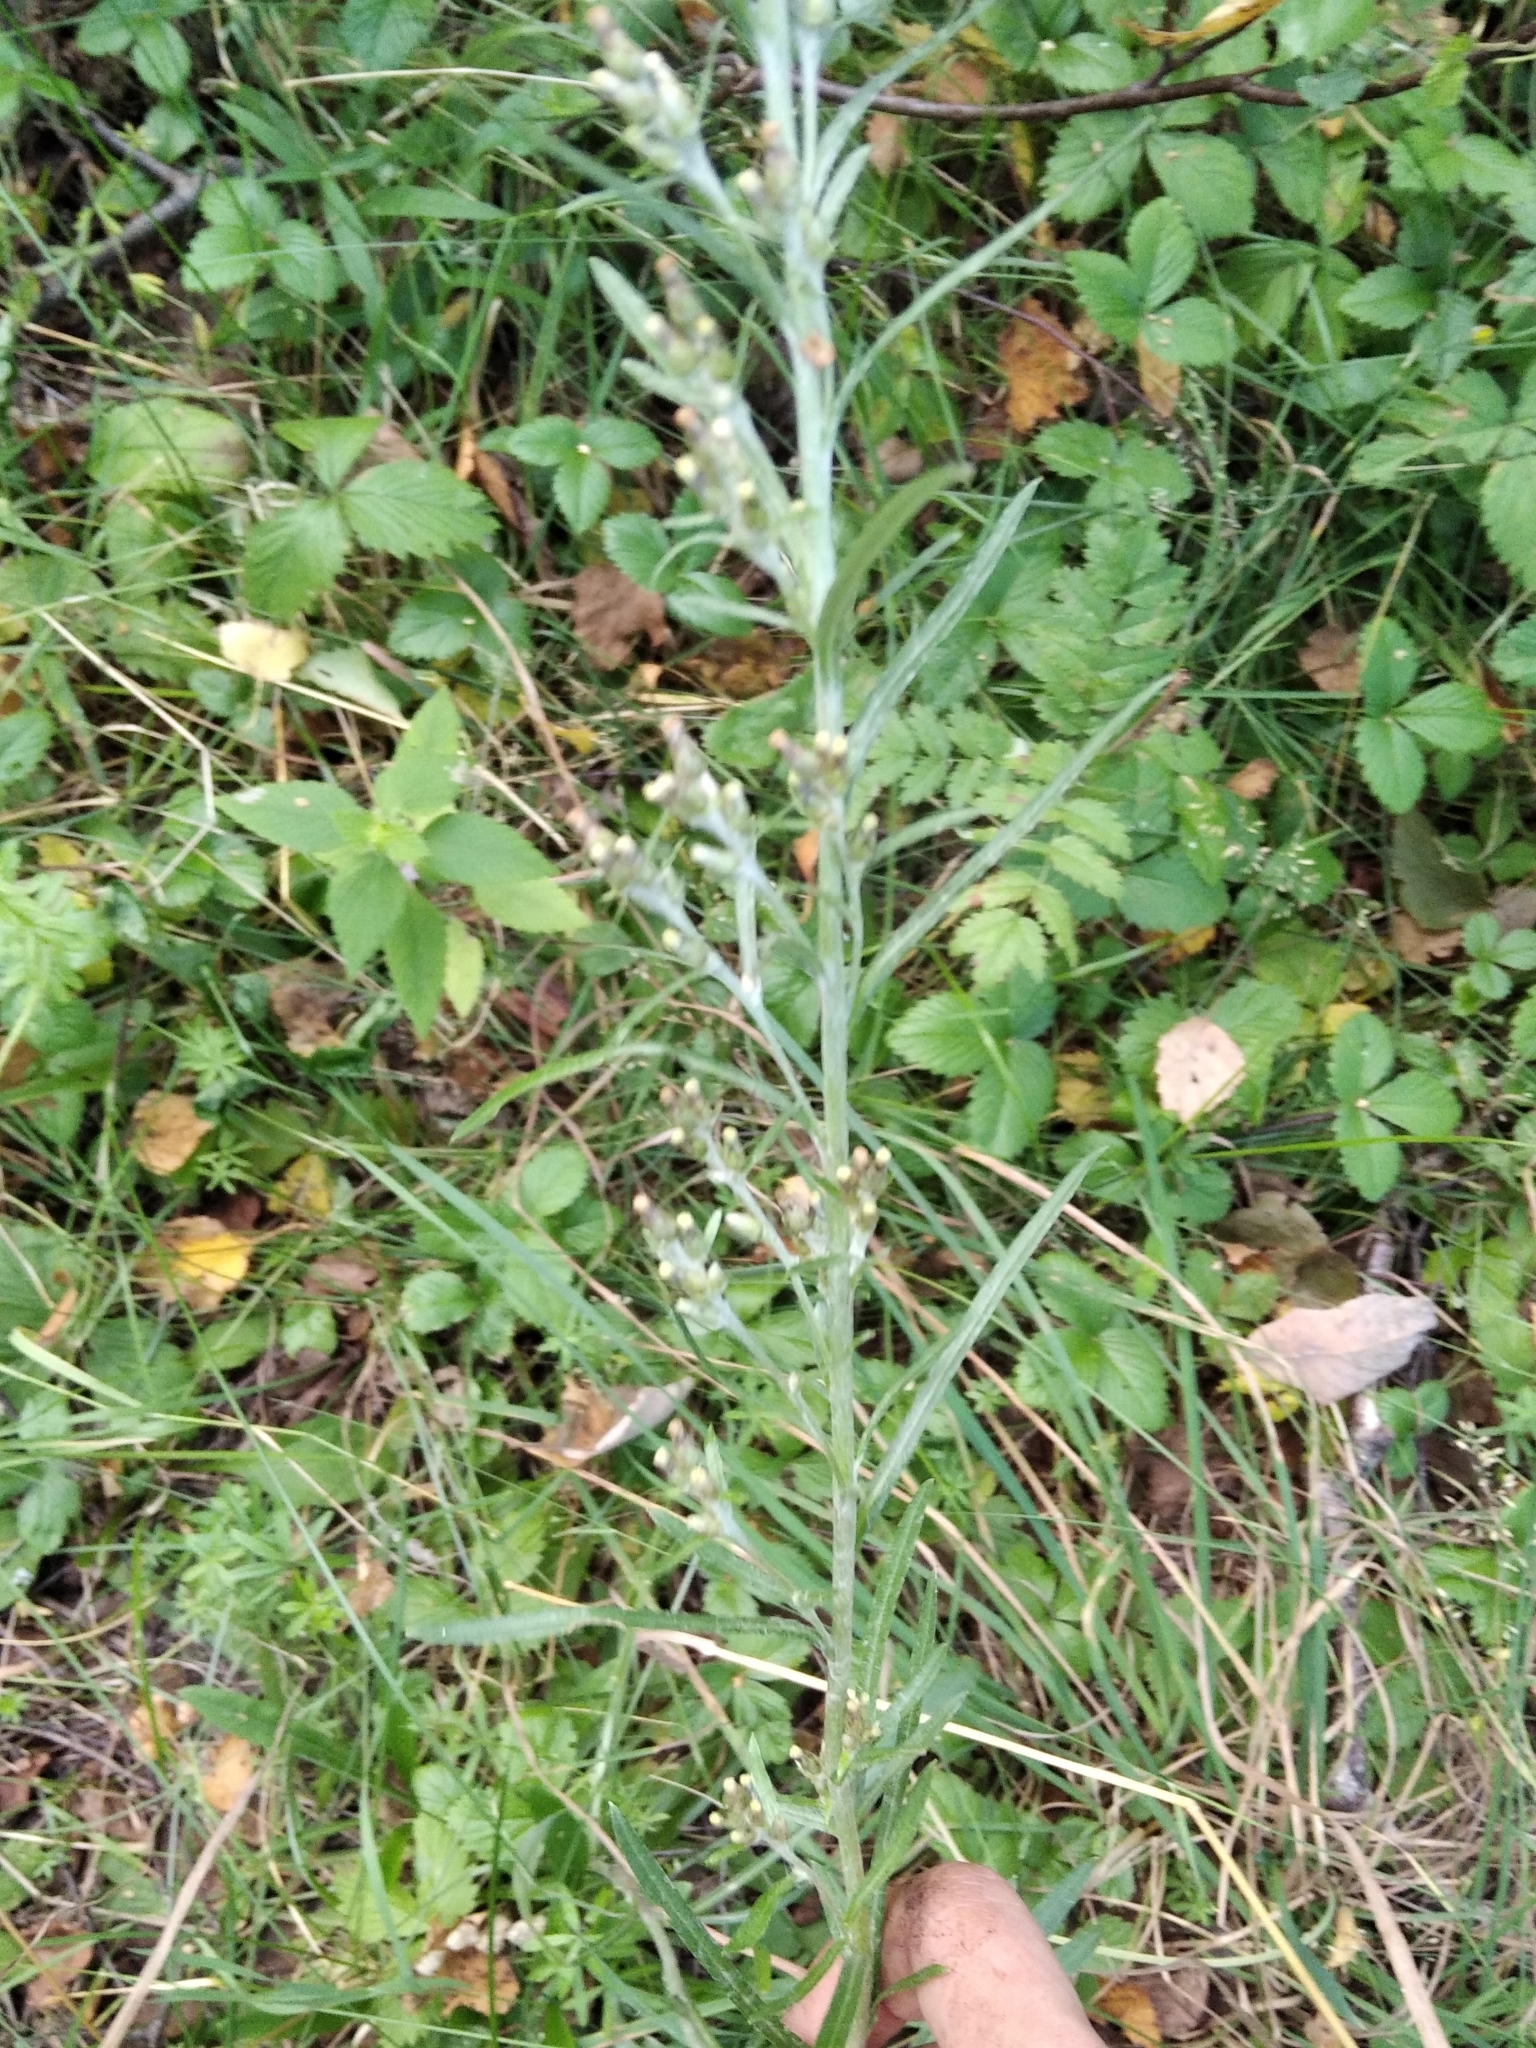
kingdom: Plantae
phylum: Tracheophyta
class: Magnoliopsida
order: Asterales
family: Asteraceae
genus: Omalotheca
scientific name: Omalotheca sylvatica
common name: Heath cudweed
